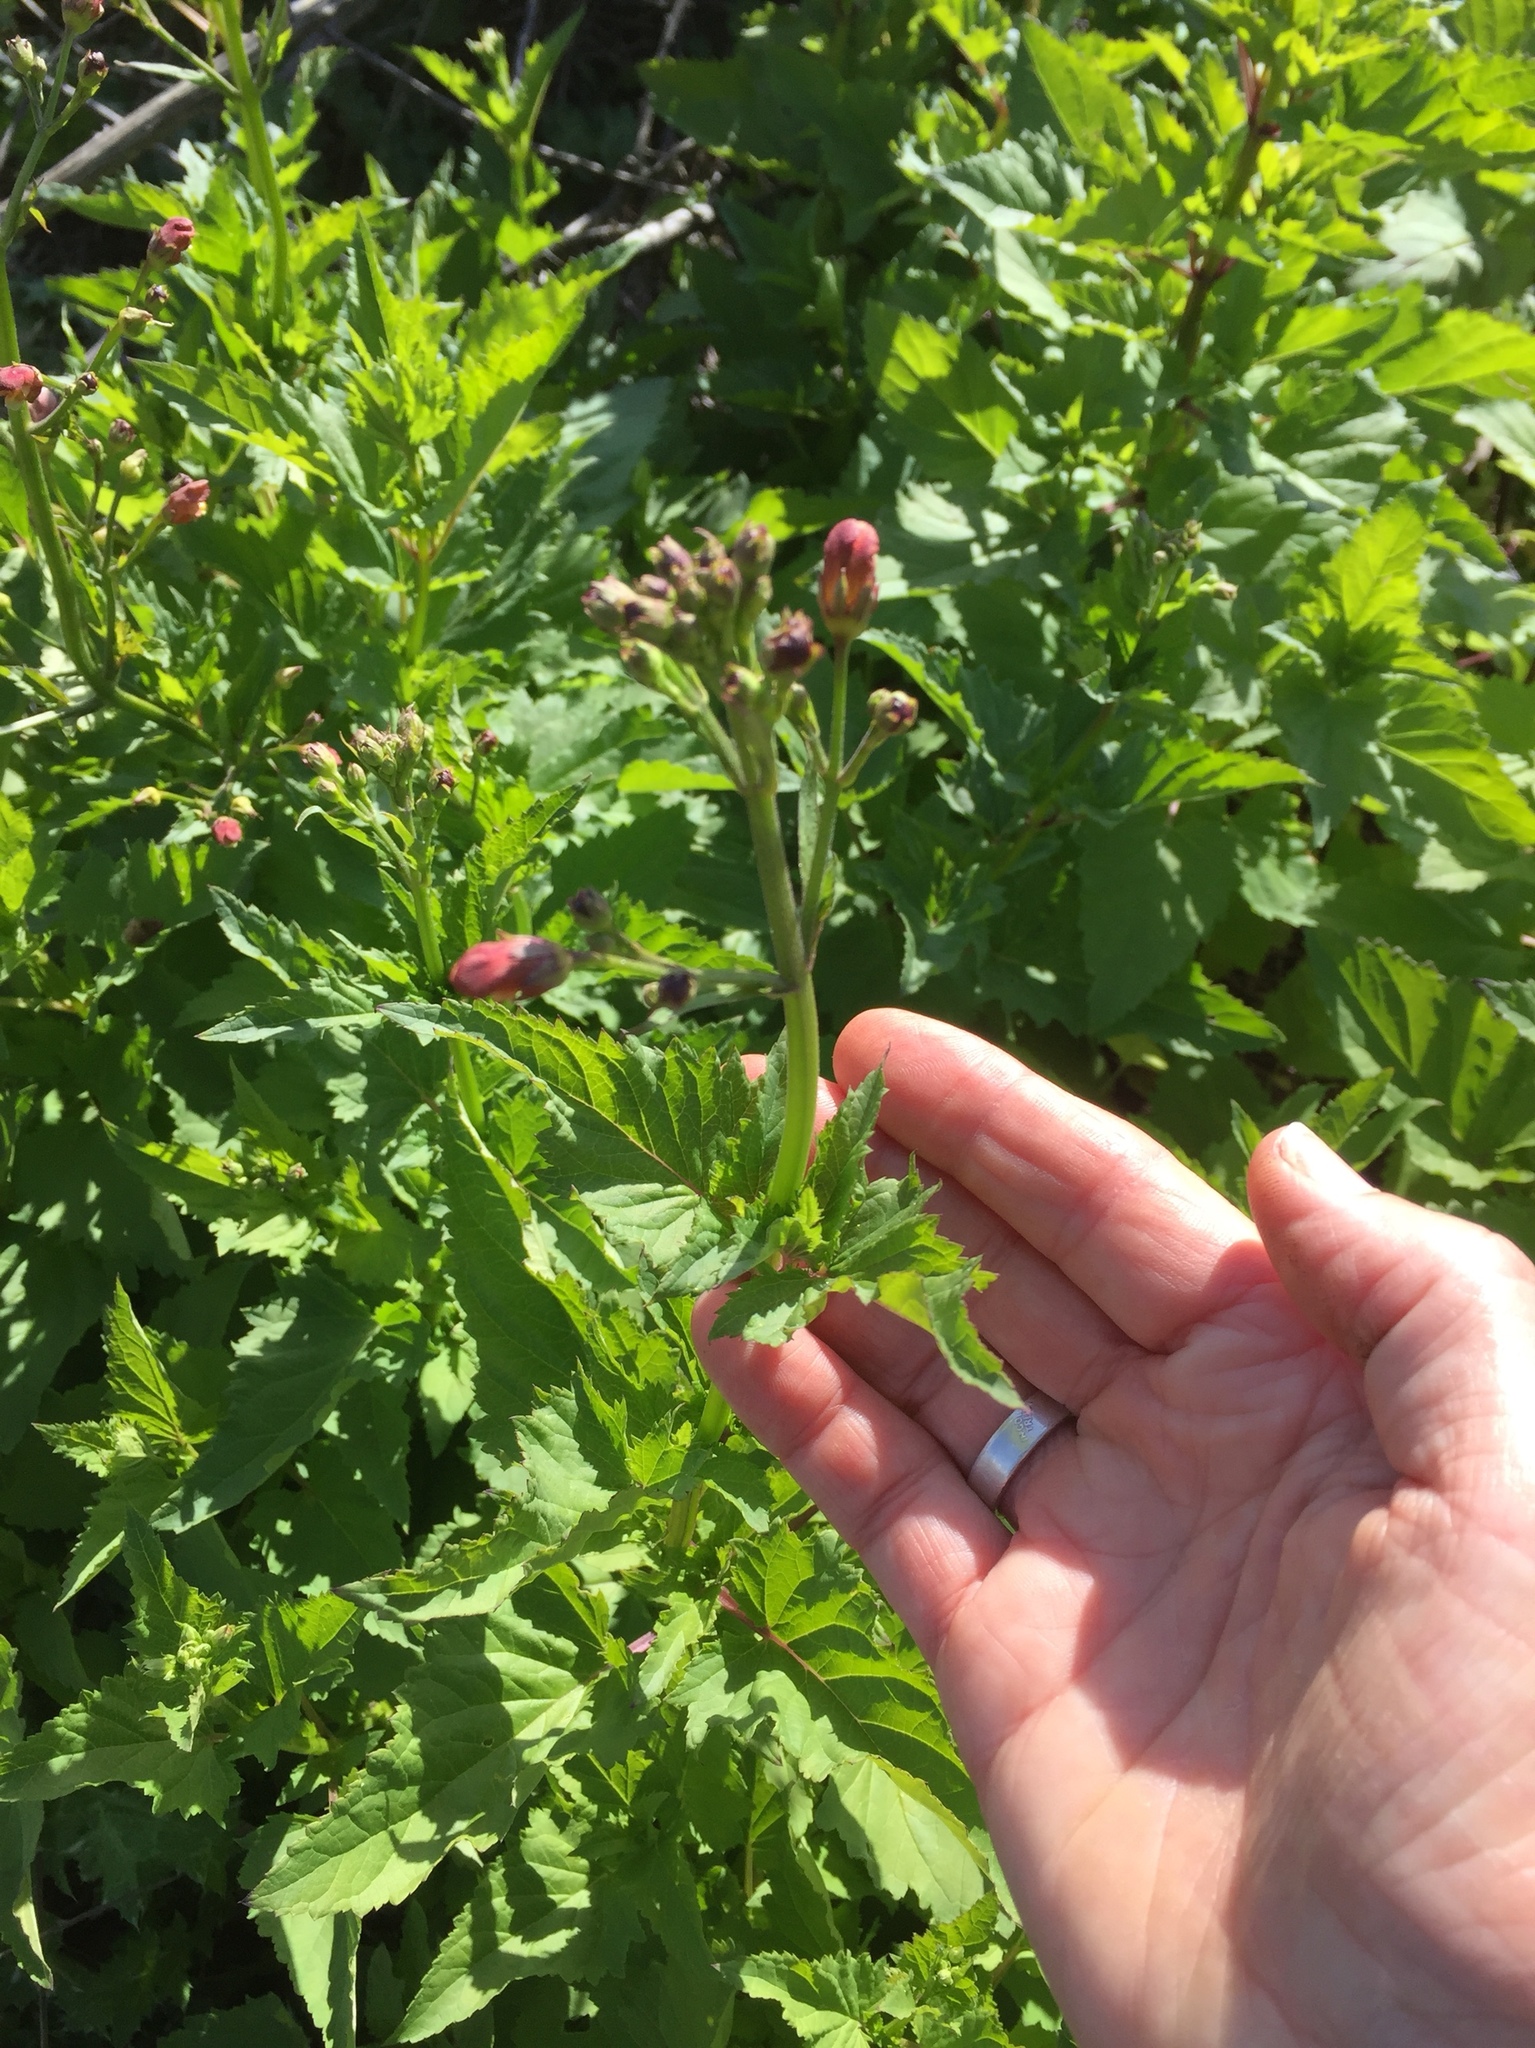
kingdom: Plantae
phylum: Tracheophyta
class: Magnoliopsida
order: Lamiales
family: Scrophulariaceae
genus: Scrophularia
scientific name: Scrophularia californica
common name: California figwort
